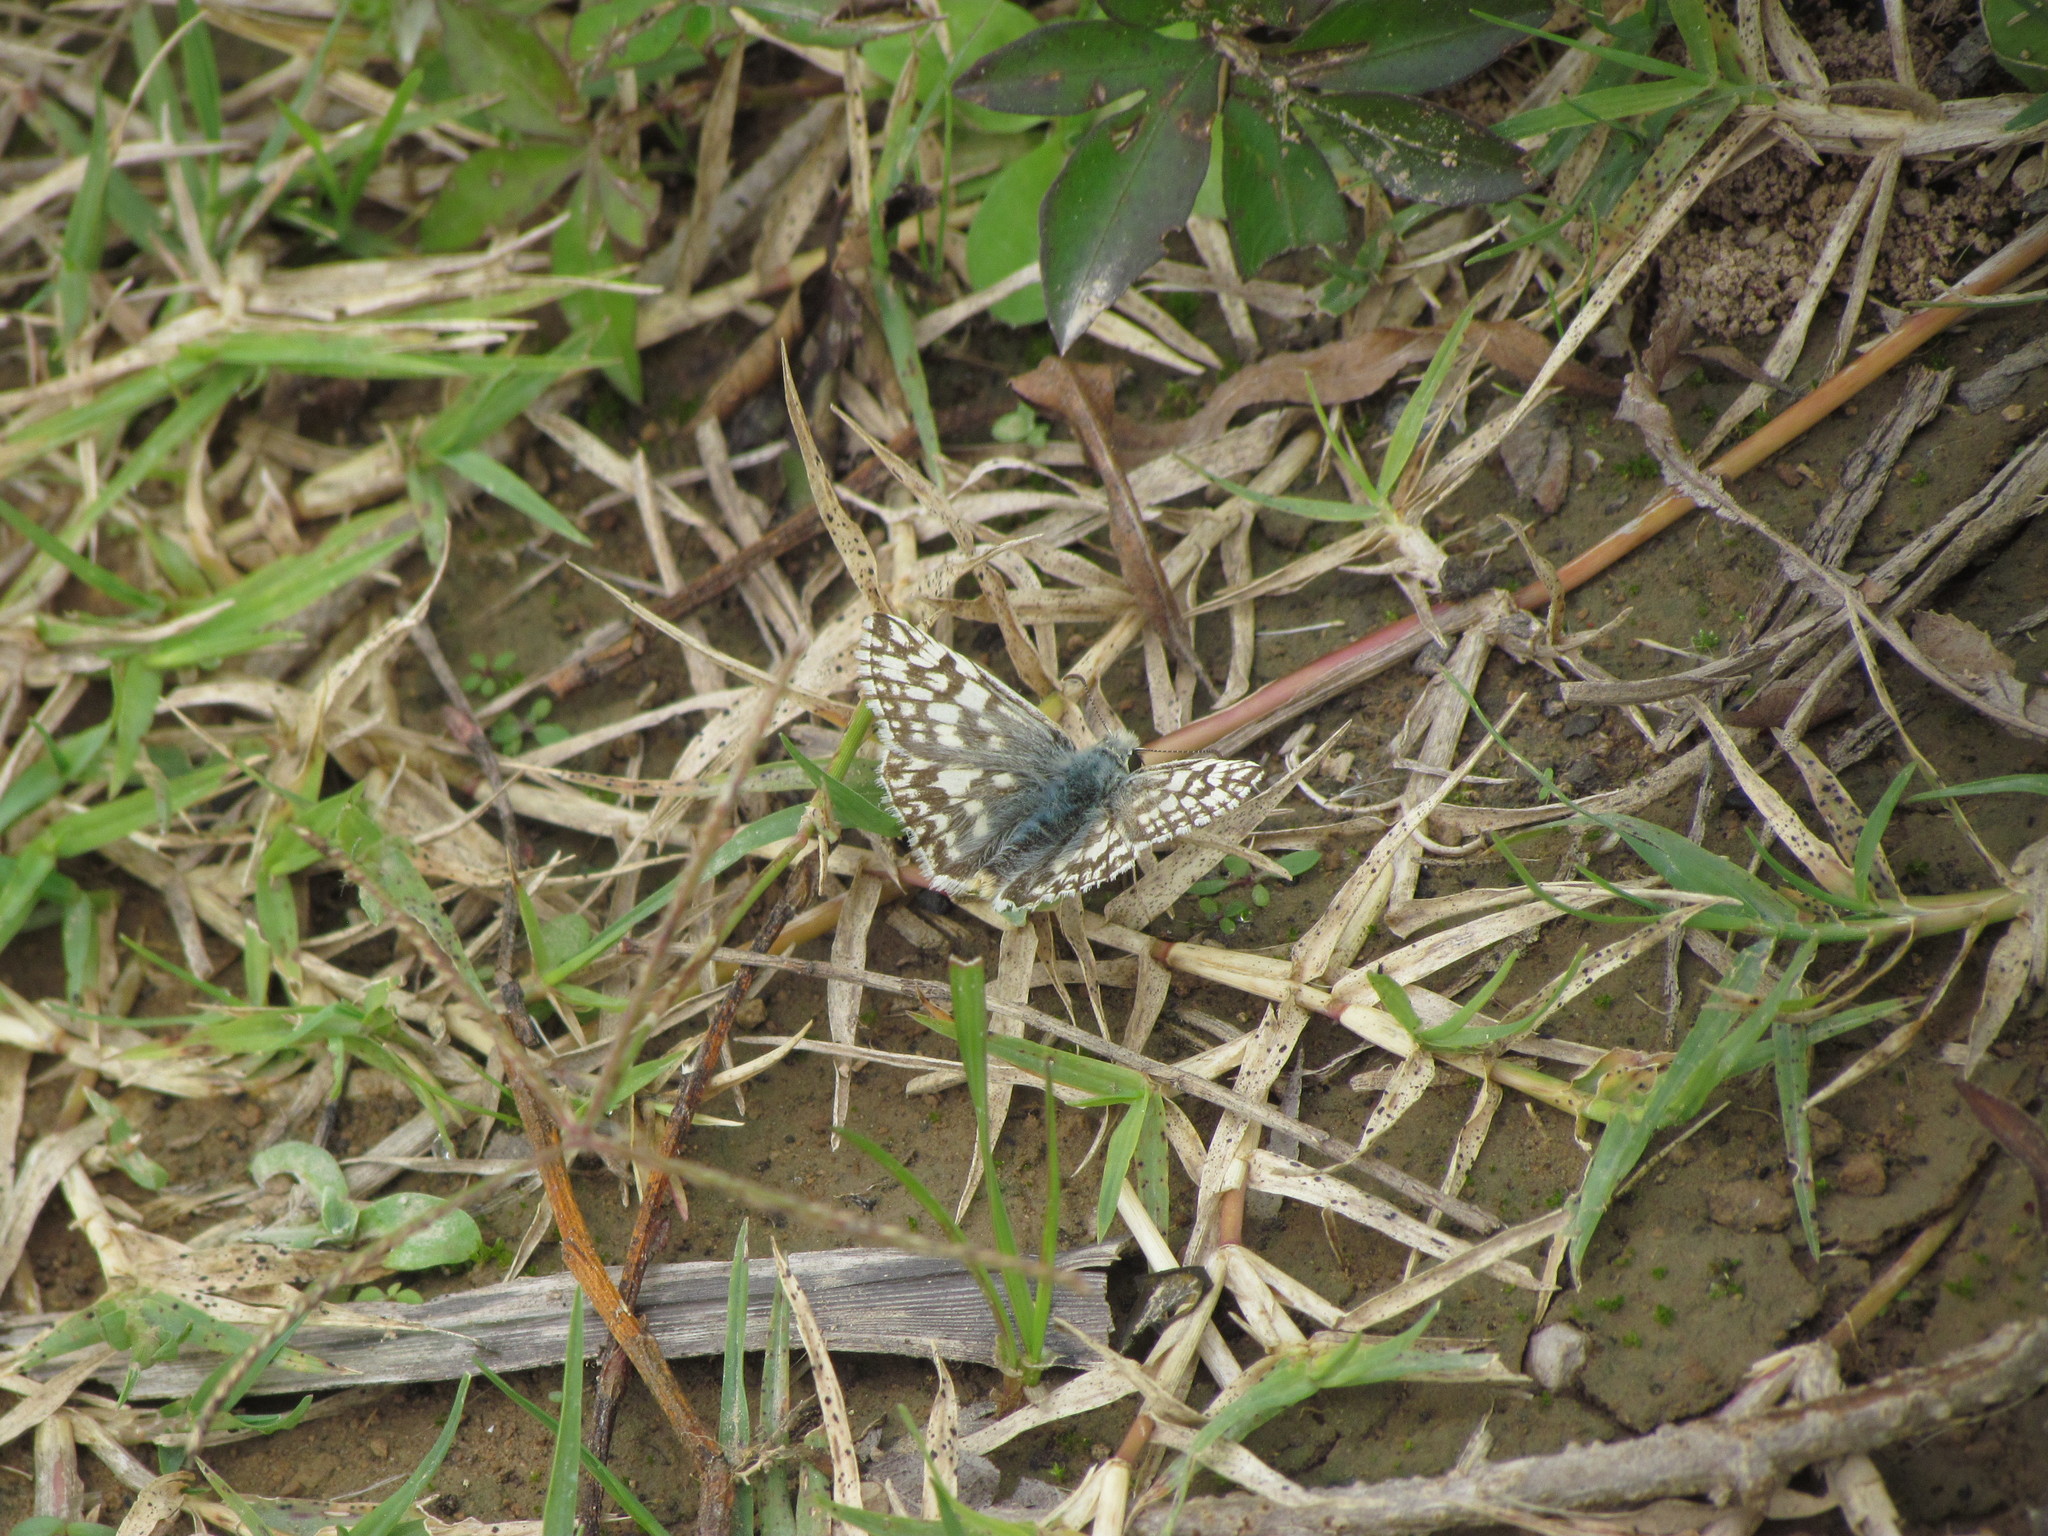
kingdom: Animalia
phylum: Arthropoda
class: Insecta
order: Lepidoptera
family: Hesperiidae
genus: Heliopetes
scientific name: Heliopetes americanus
